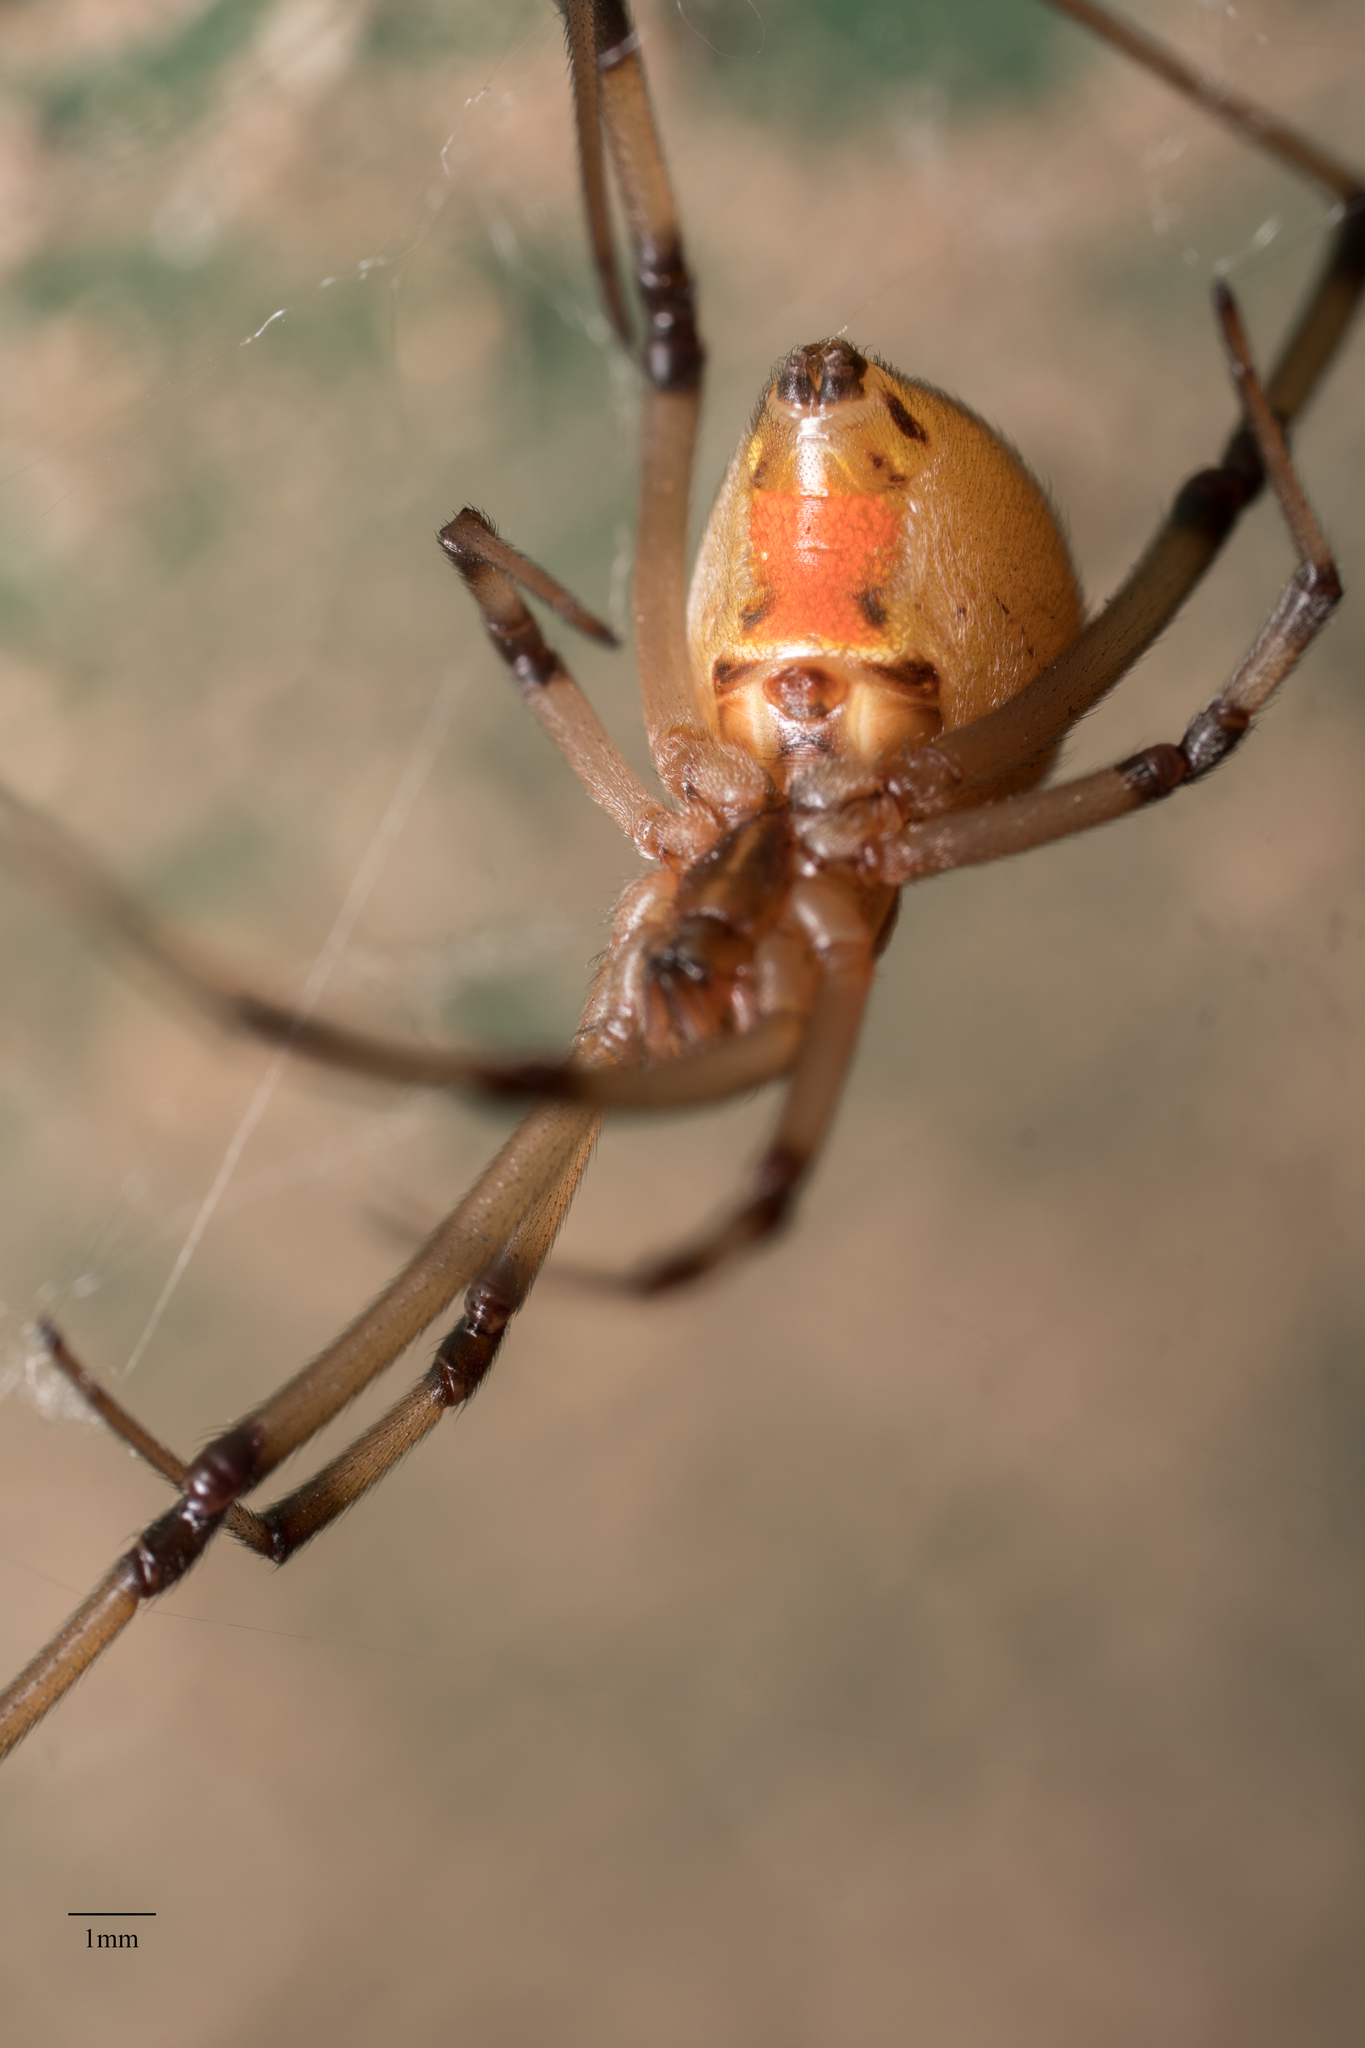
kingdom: Animalia
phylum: Arthropoda
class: Arachnida
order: Araneae
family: Theridiidae
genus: Latrodectus
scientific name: Latrodectus geometricus
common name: Brown widow spider
